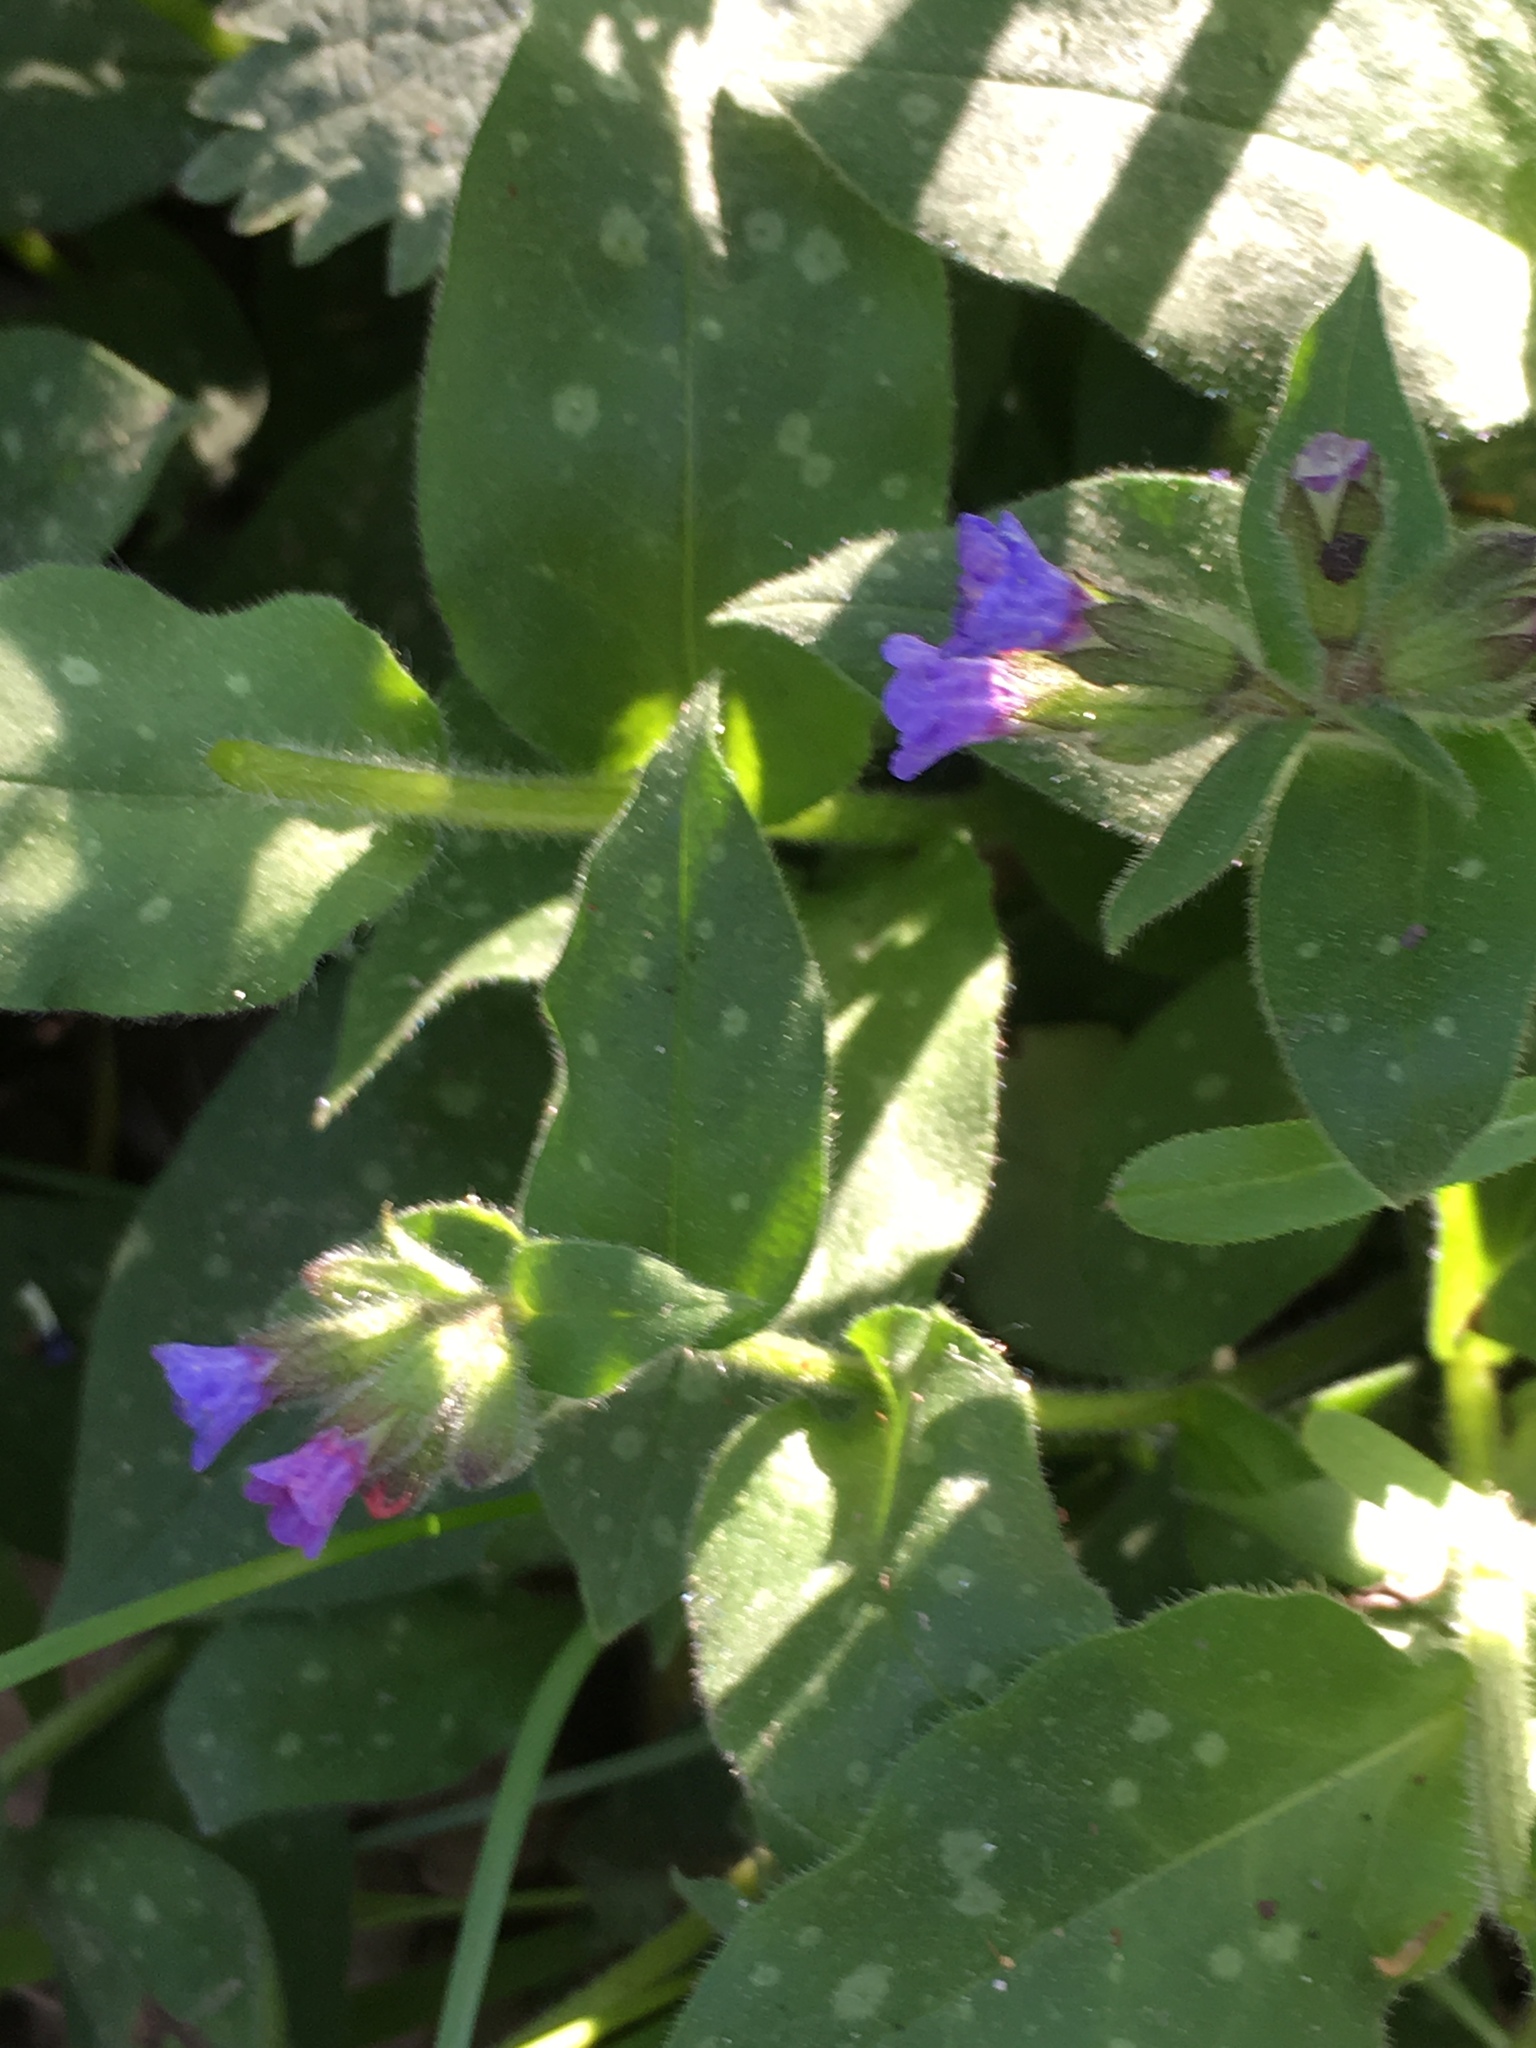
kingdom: Plantae
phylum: Tracheophyta
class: Magnoliopsida
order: Boraginales
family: Boraginaceae
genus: Pulmonaria
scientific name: Pulmonaria officinalis
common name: Lungwort
